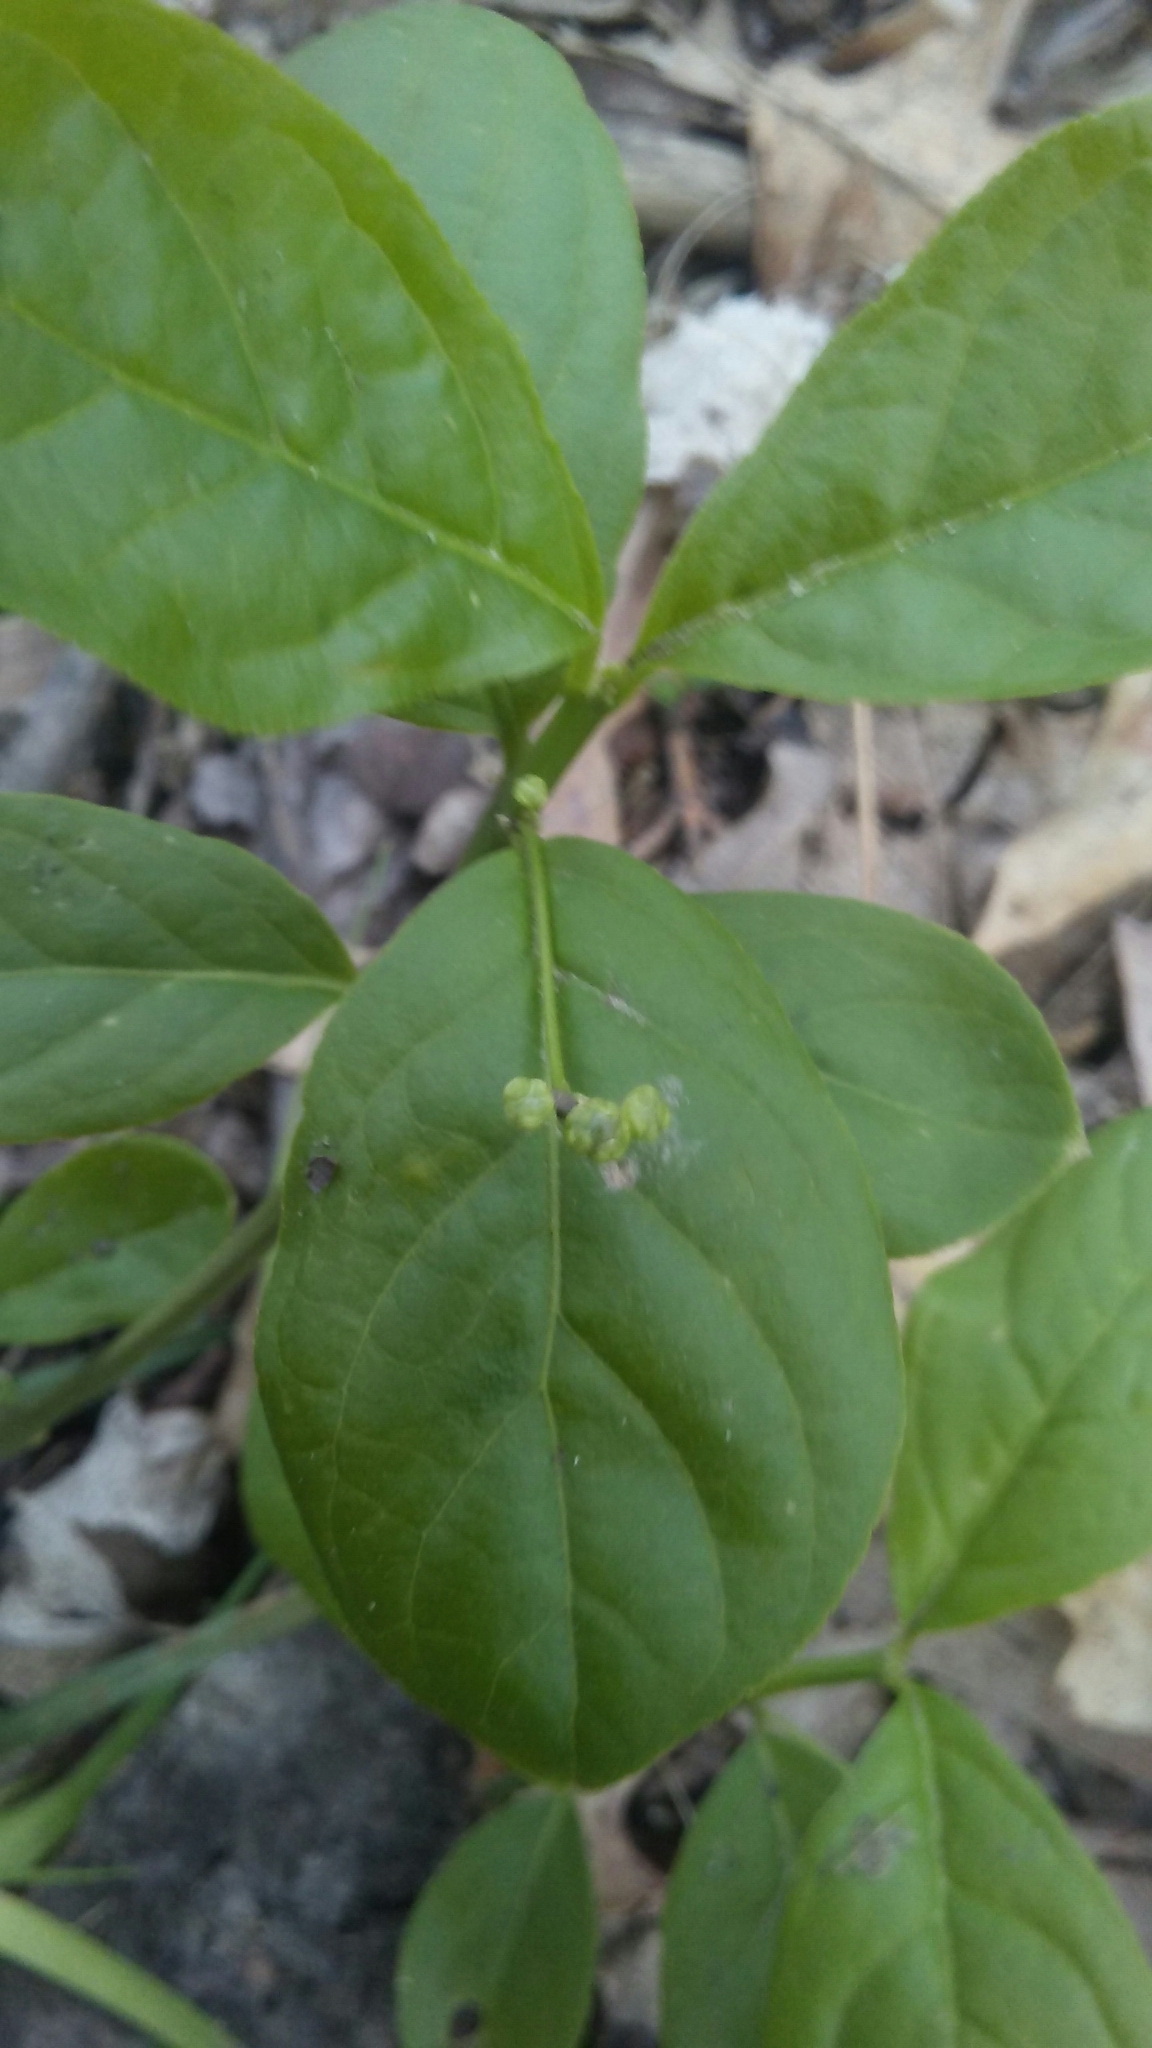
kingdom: Plantae
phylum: Tracheophyta
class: Magnoliopsida
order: Celastrales
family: Celastraceae
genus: Euonymus
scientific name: Euonymus obovatus
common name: Running strawberry-bush
